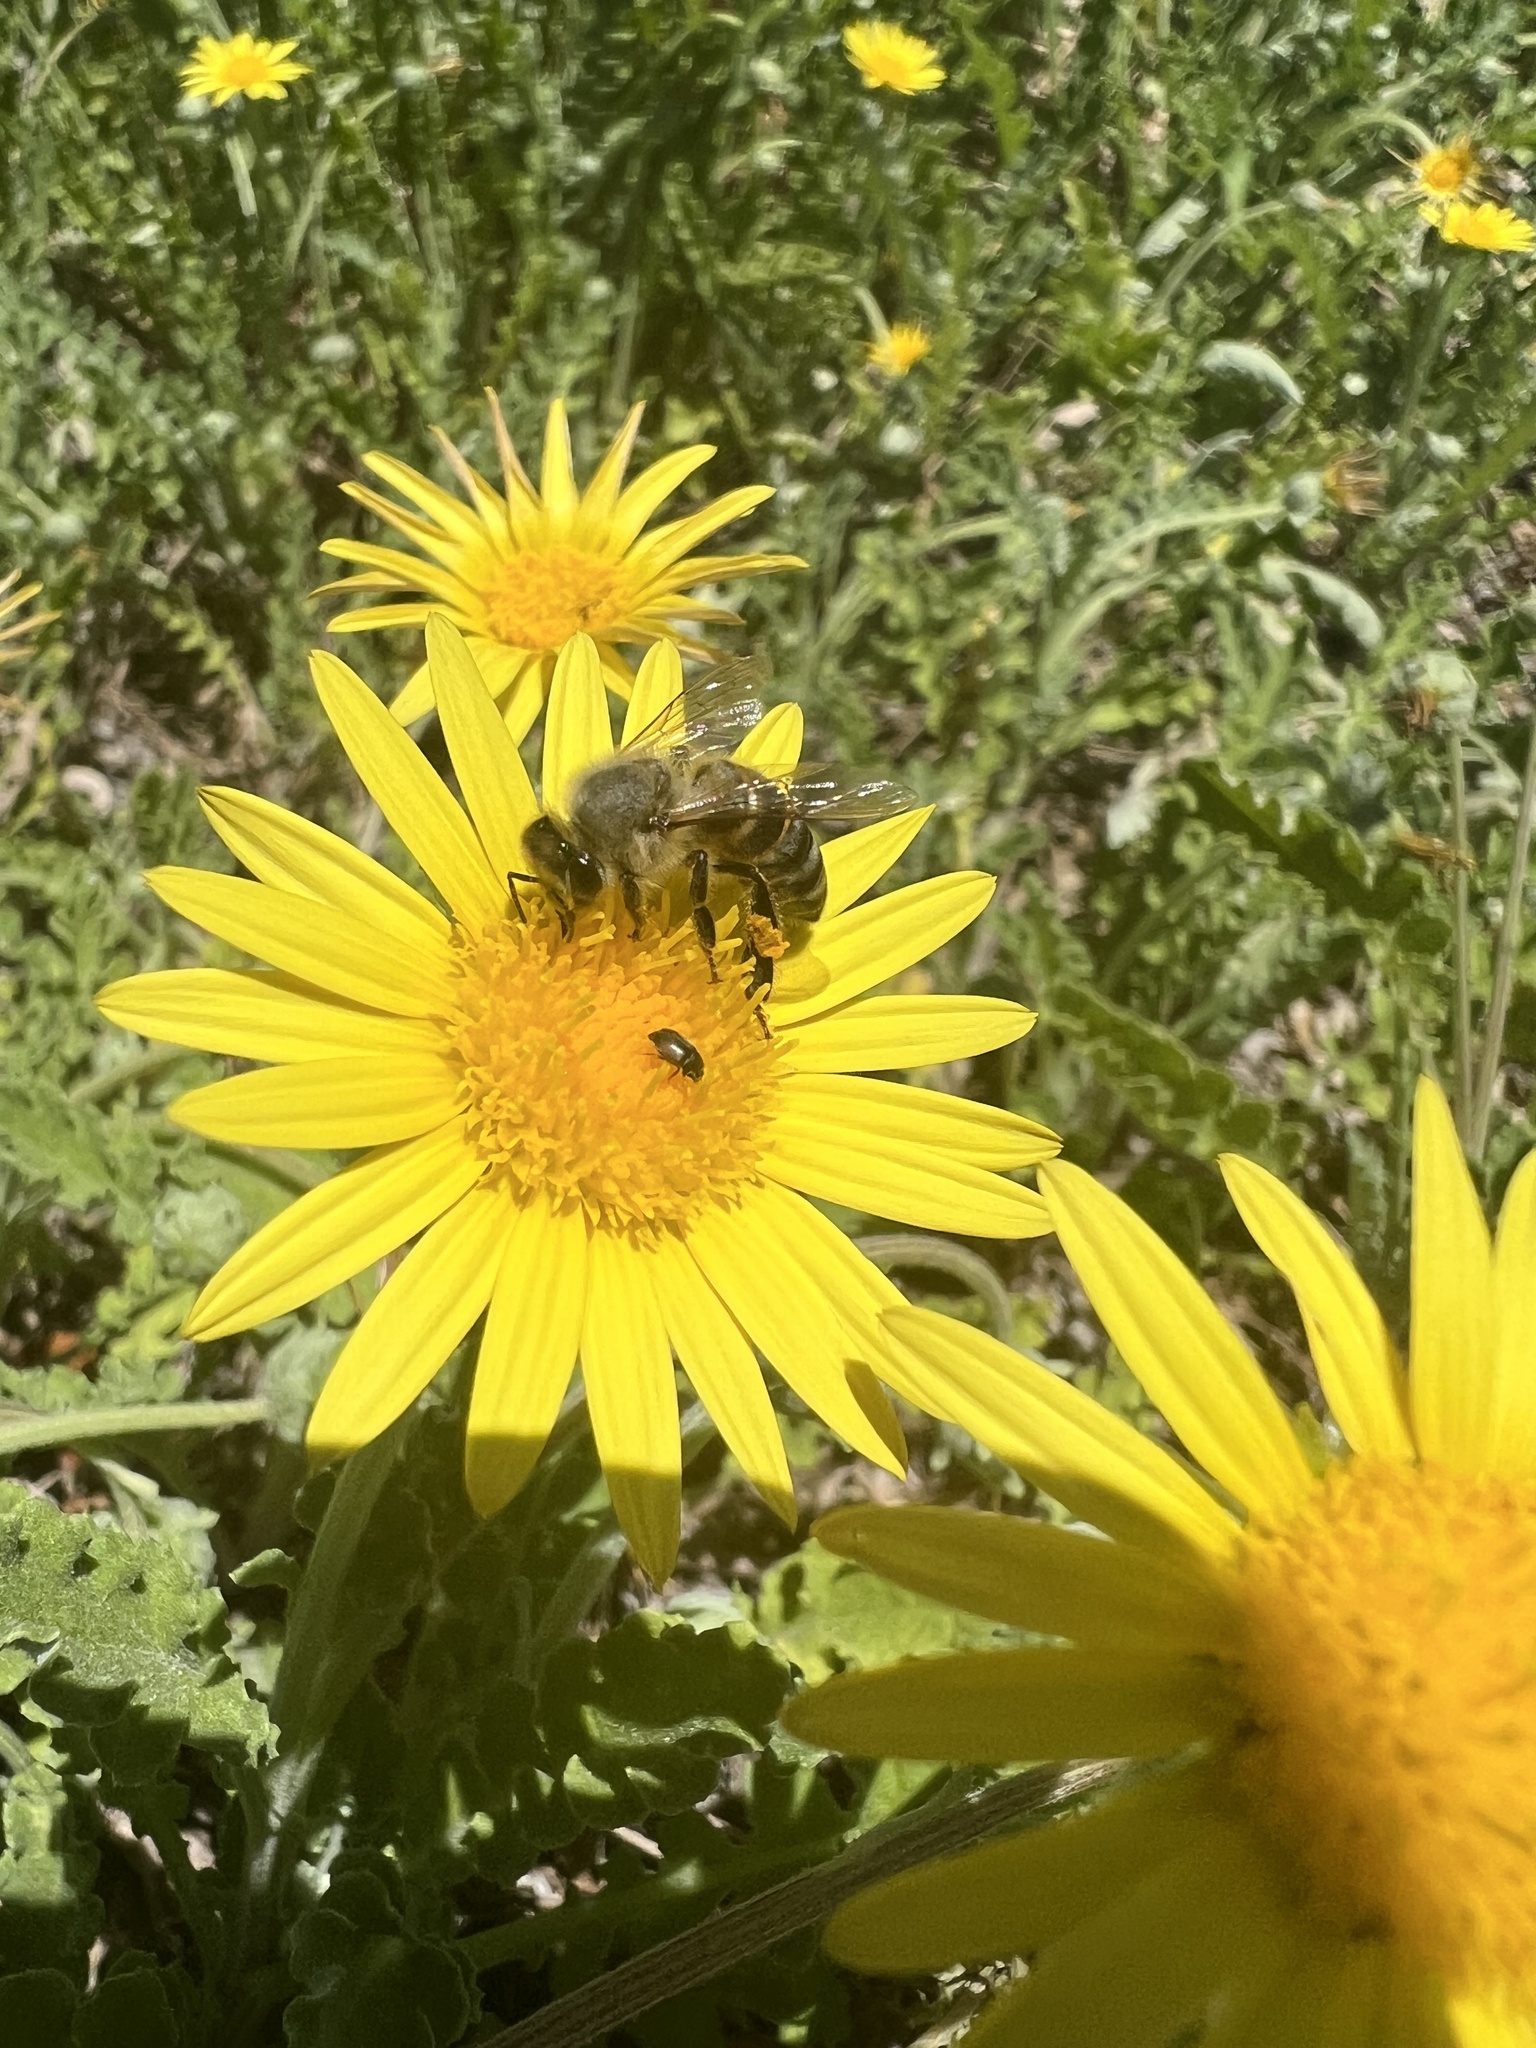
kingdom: Animalia
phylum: Arthropoda
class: Insecta
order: Hymenoptera
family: Apidae
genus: Apis
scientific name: Apis mellifera
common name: Honey bee
